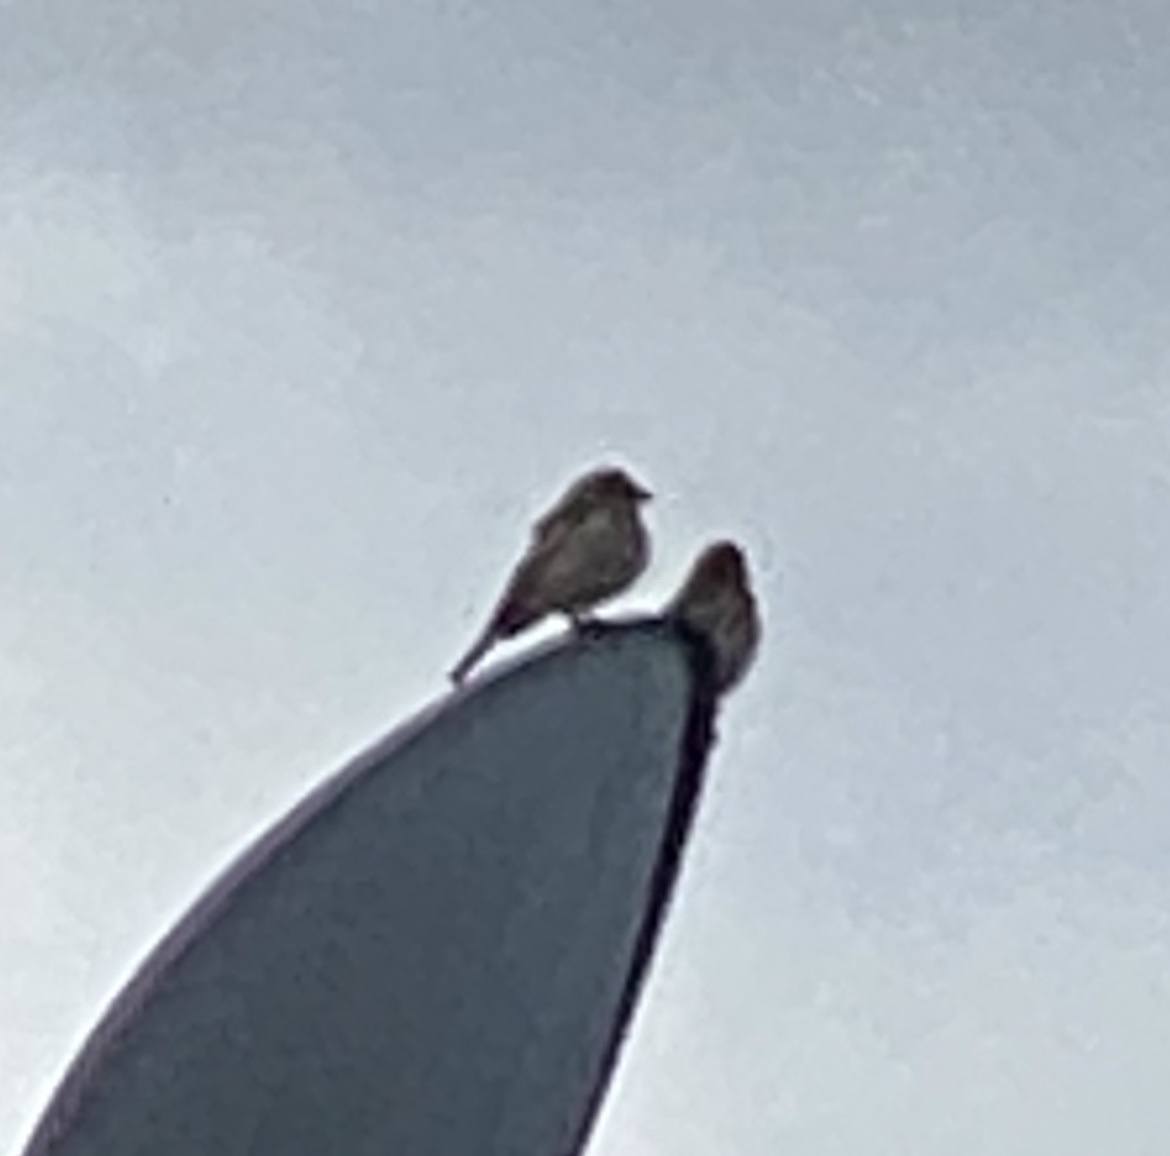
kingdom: Animalia
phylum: Chordata
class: Aves
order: Passeriformes
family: Fringillidae
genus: Haemorhous
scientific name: Haemorhous mexicanus
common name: House finch
